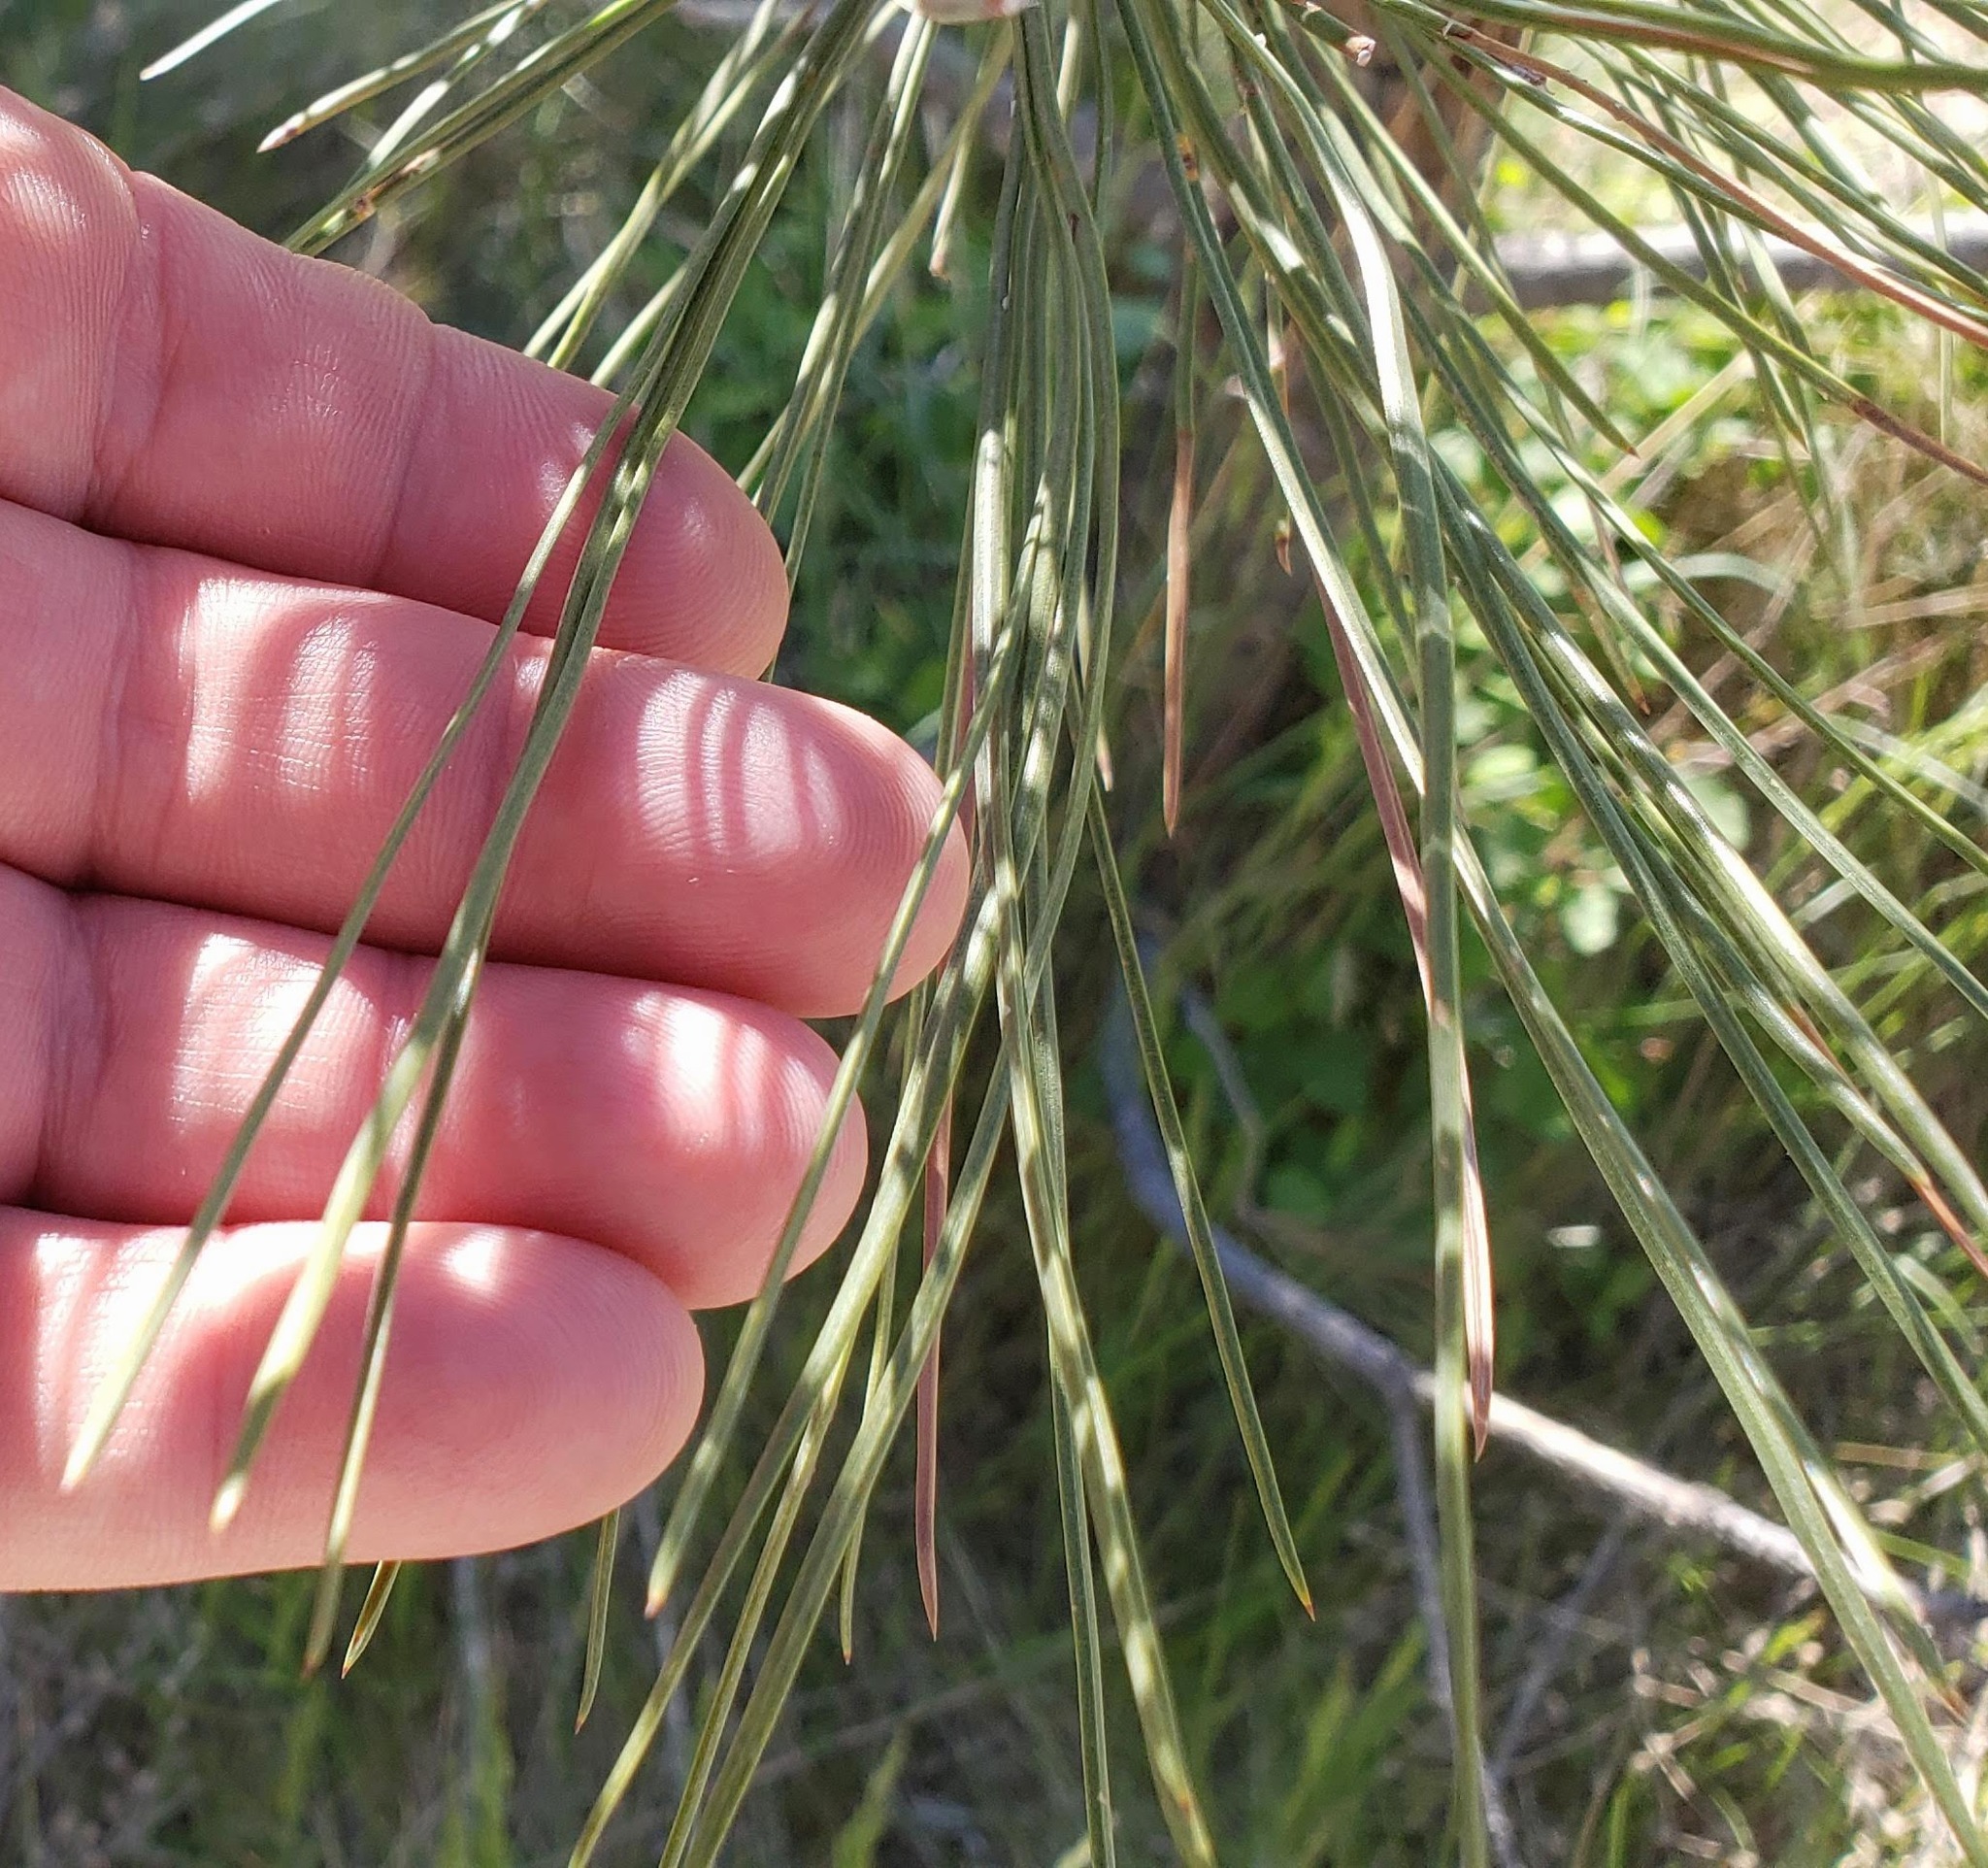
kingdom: Plantae
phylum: Tracheophyta
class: Pinopsida
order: Pinales
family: Pinaceae
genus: Pinus
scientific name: Pinus ponderosa
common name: Western yellow-pine
